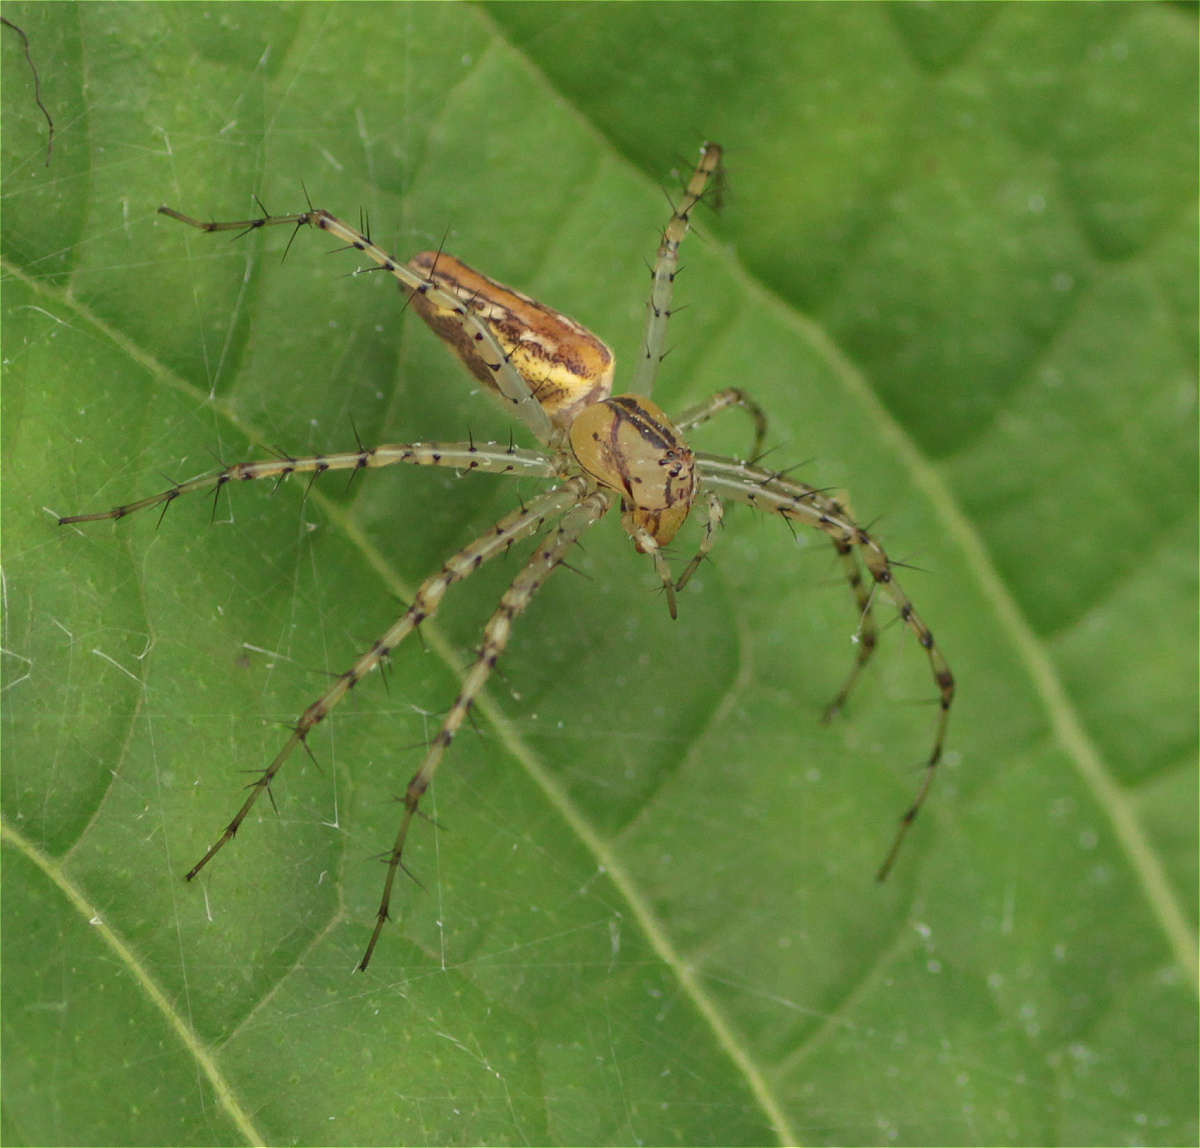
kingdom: Animalia
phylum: Arthropoda
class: Arachnida
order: Araneae
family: Oxyopidae
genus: Peucetia
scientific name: Peucetia rubrolineata
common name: Lynx spiders
